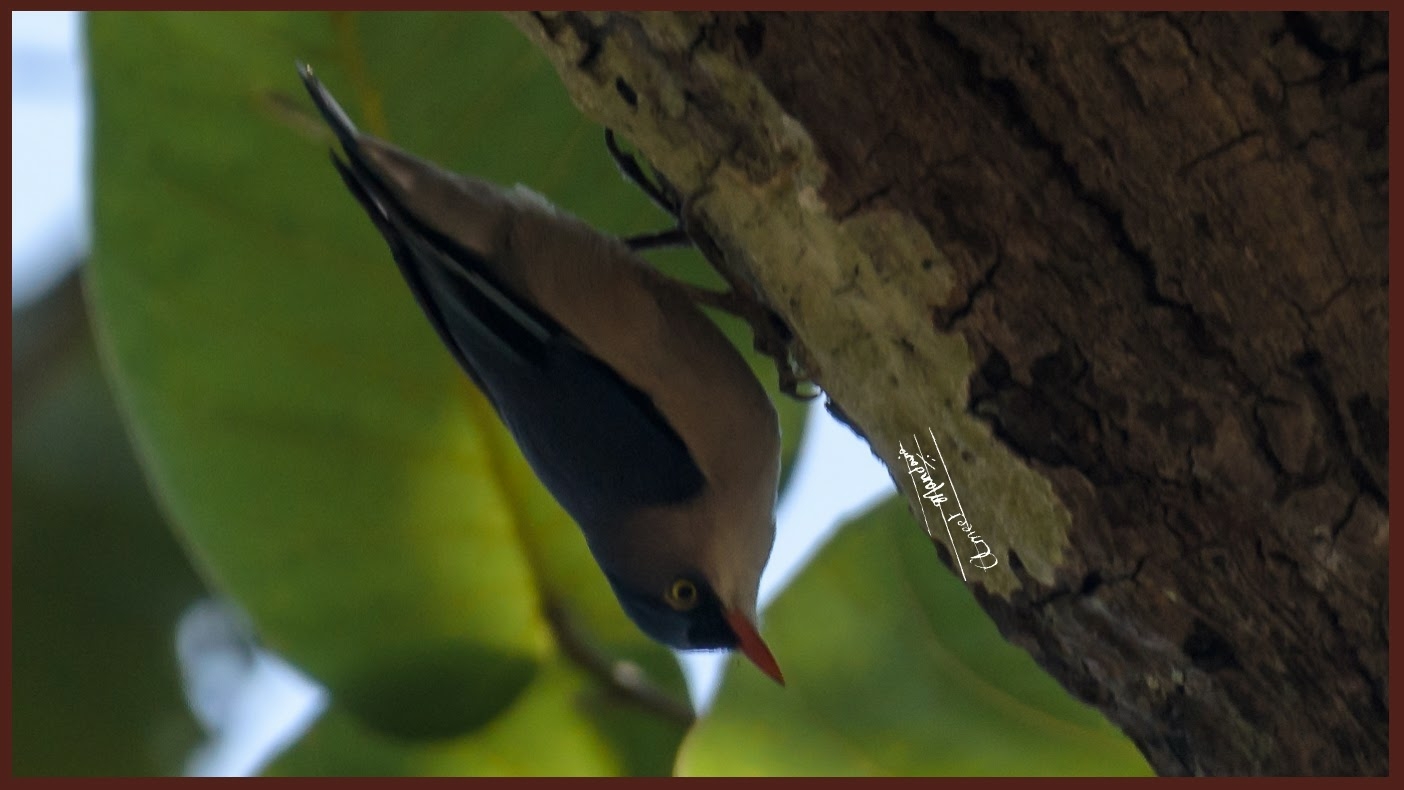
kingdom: Animalia
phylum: Chordata
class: Aves
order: Passeriformes
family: Sittidae
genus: Sitta
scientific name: Sitta frontalis
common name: Velvet-fronted nuthatch
